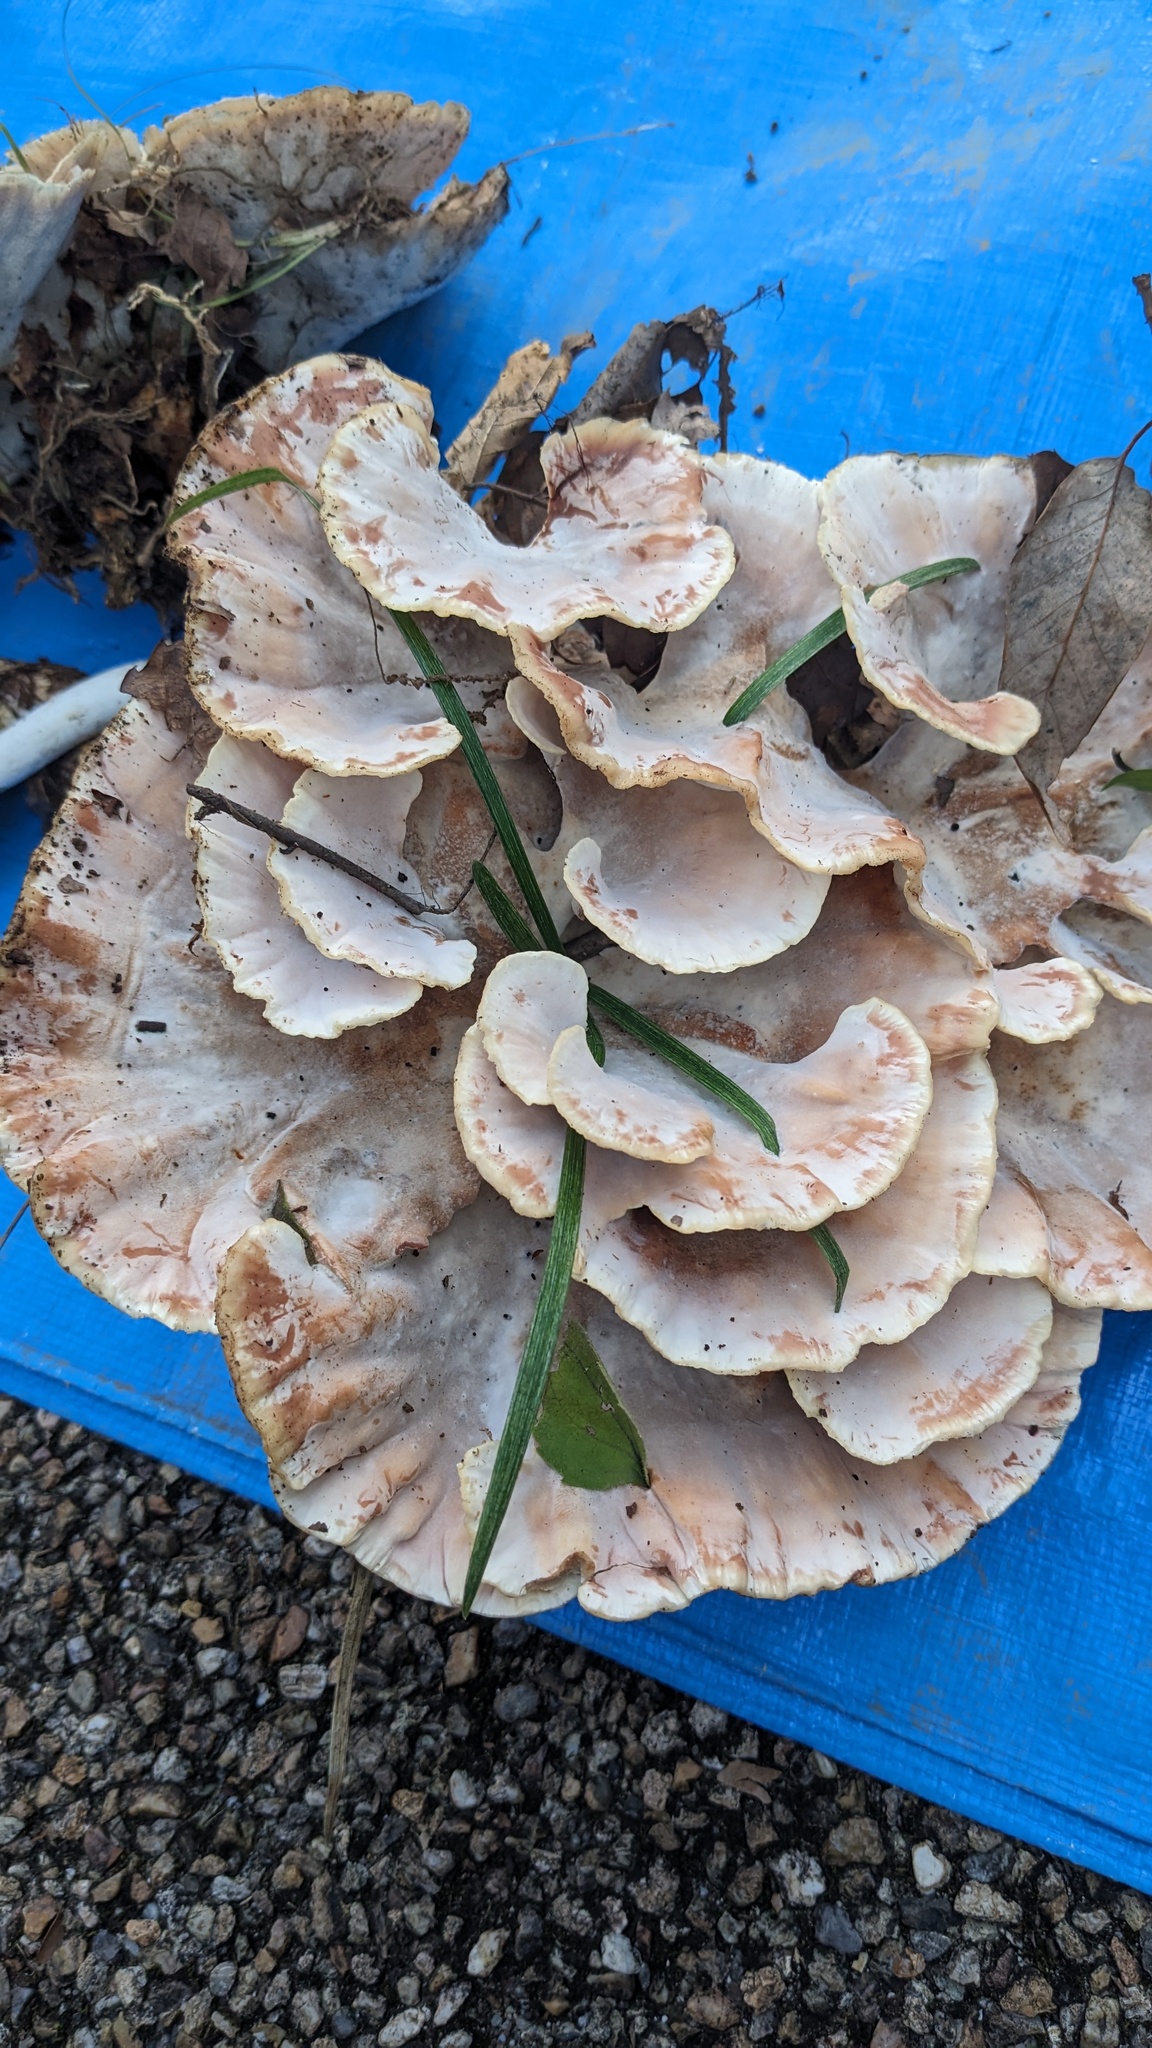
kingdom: Fungi
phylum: Basidiomycota
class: Agaricomycetes
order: Polyporales
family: Podoscyphaceae
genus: Abortiporus
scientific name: Abortiporus biennis
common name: Blushing rosette
